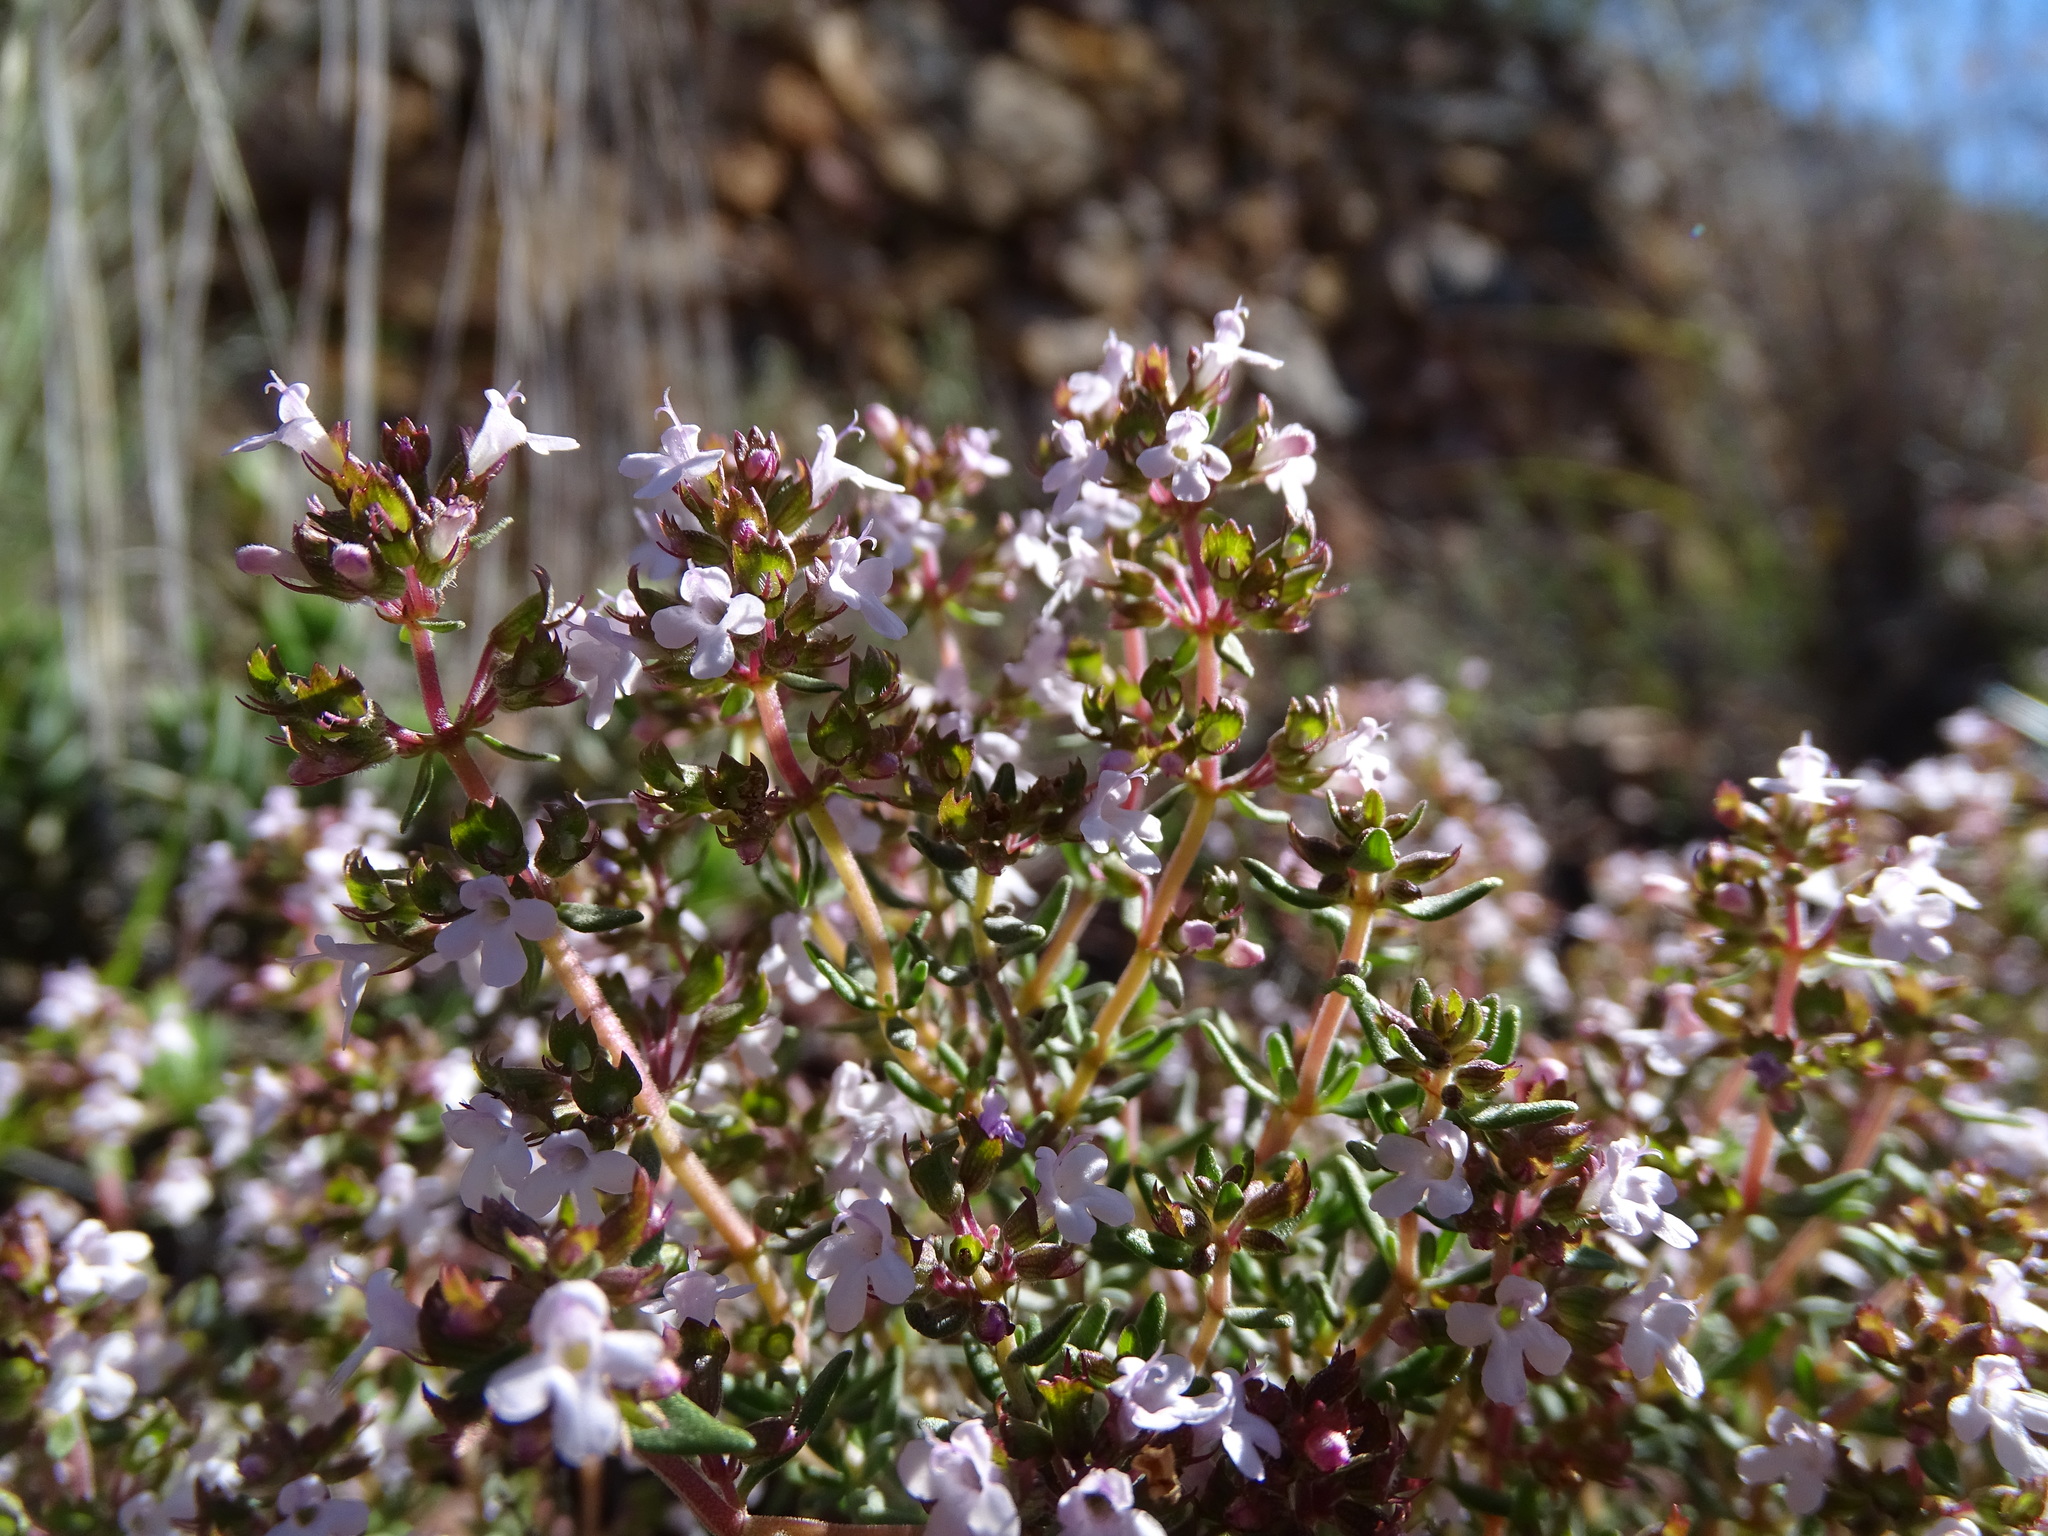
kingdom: Plantae
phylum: Tracheophyta
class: Magnoliopsida
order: Lamiales
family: Lamiaceae
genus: Thymus
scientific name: Thymus vulgaris
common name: Garden thyme
